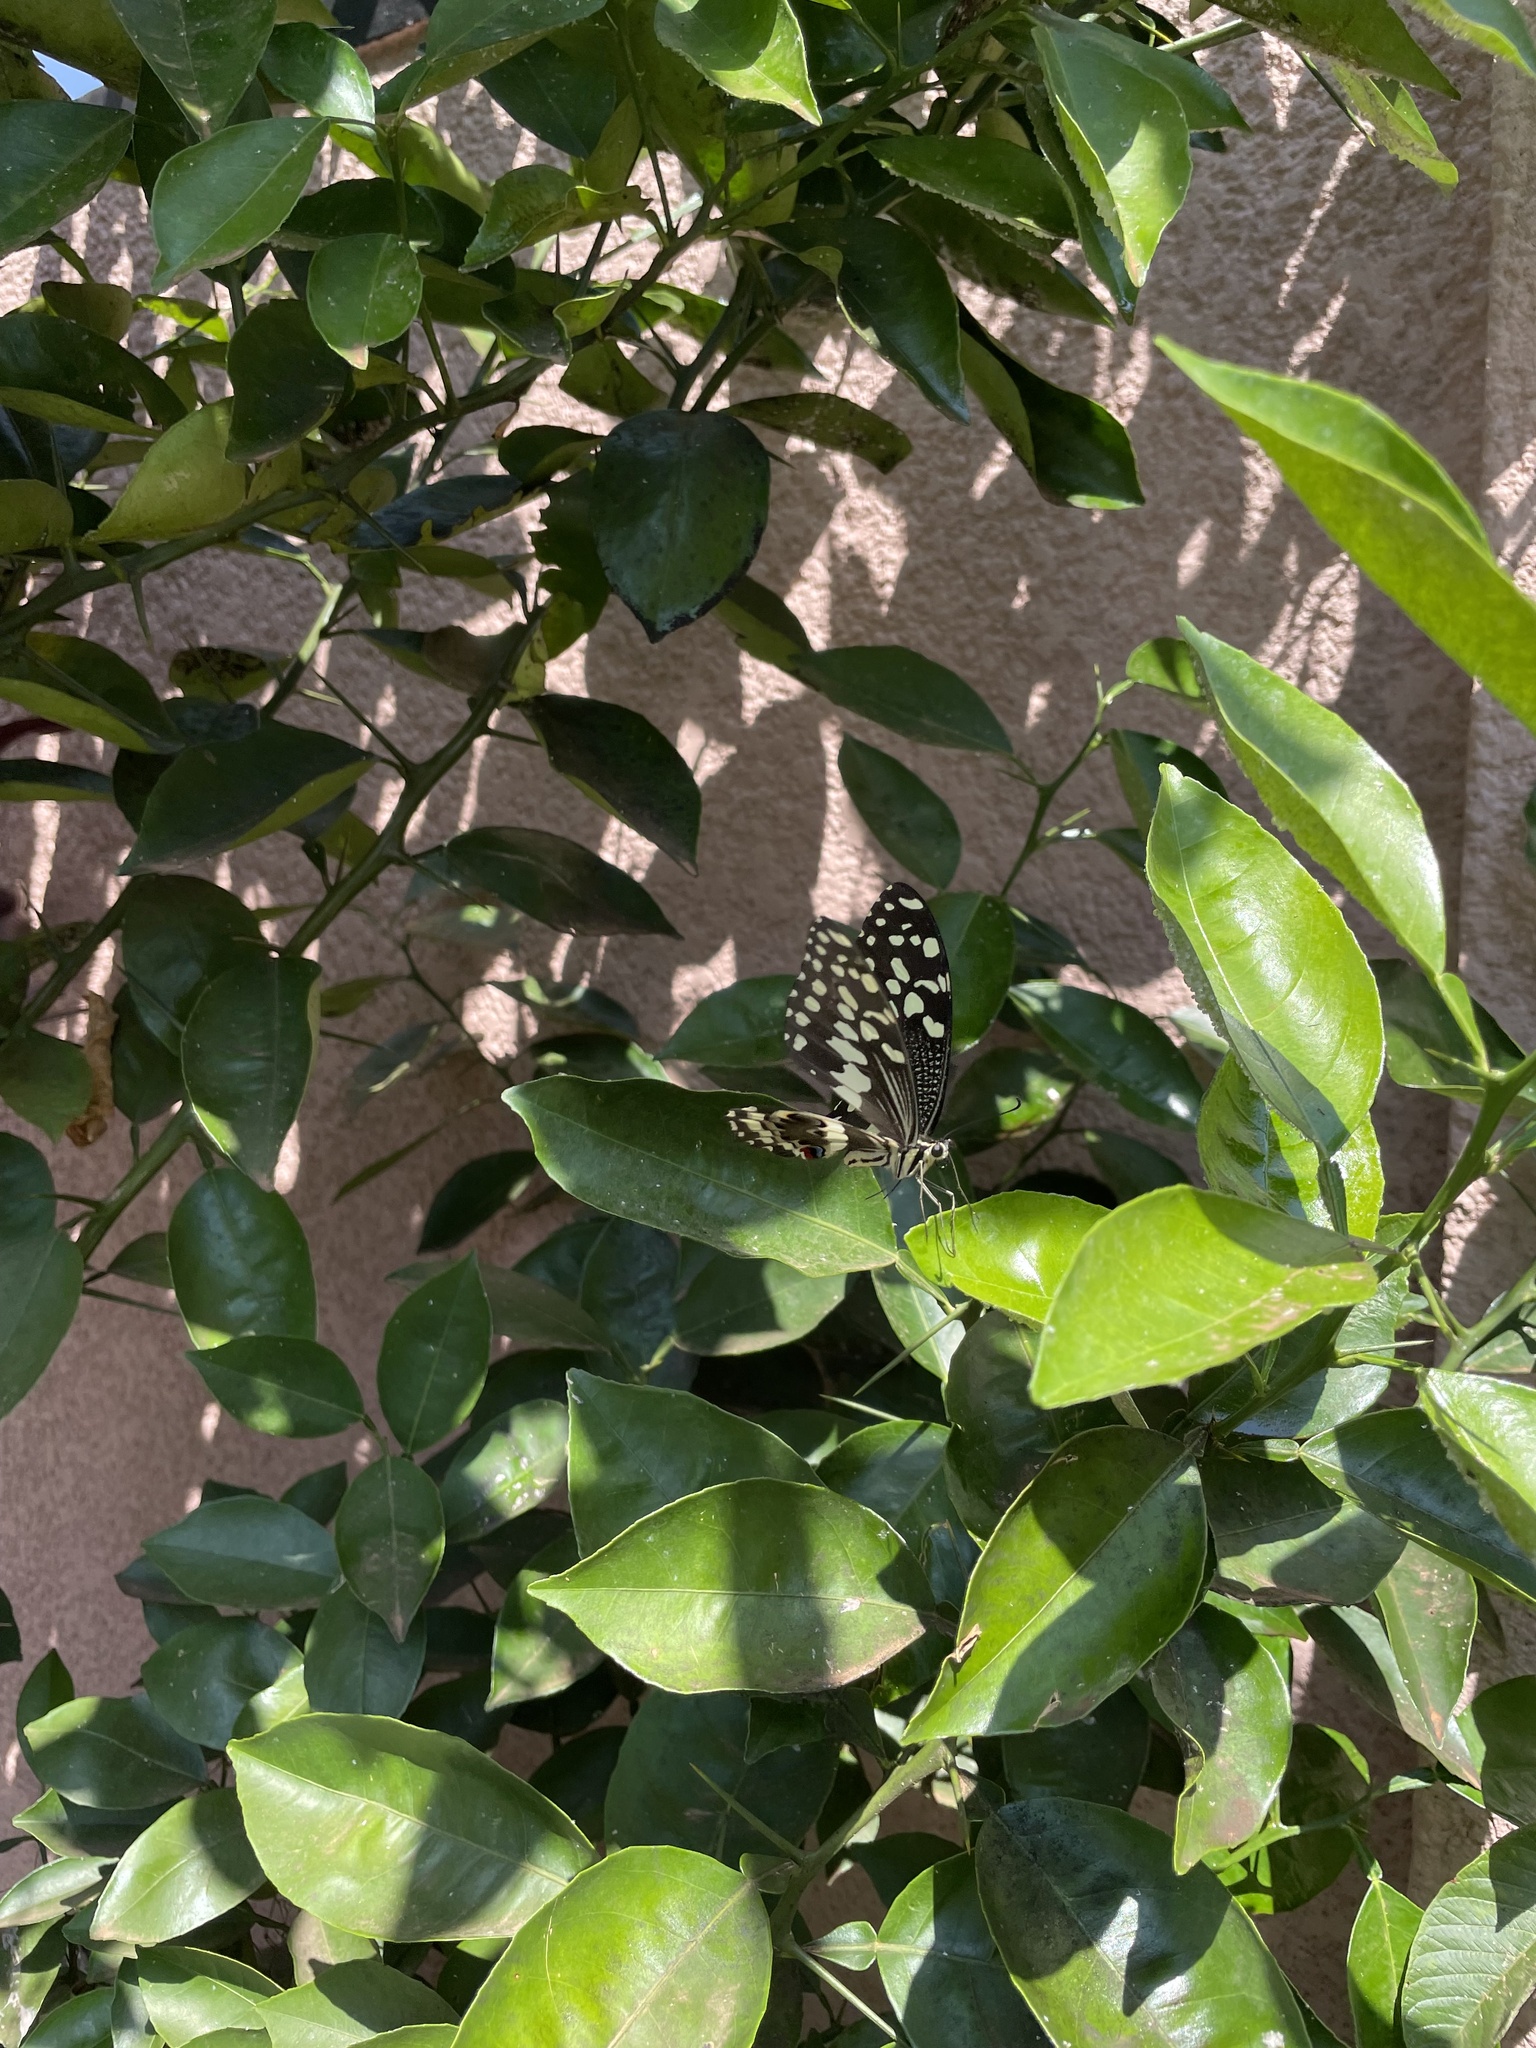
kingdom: Animalia
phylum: Arthropoda
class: Insecta
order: Lepidoptera
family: Papilionidae
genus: Papilio
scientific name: Papilio demodocus
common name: Christmas butterfly
